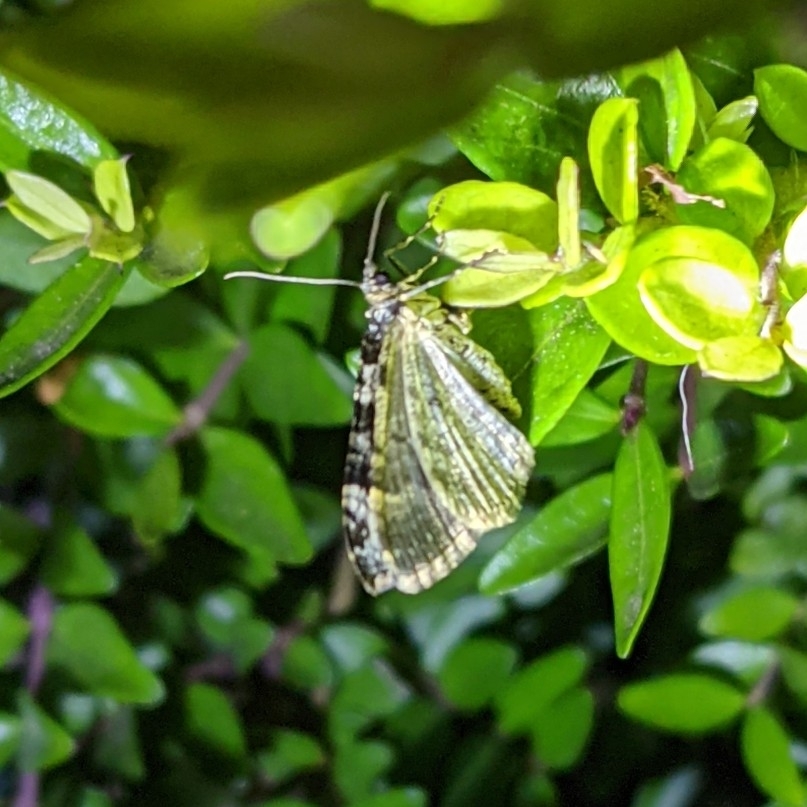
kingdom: Animalia
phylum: Arthropoda
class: Insecta
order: Lepidoptera
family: Geometridae
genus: Chloroclysta
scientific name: Chloroclysta siterata
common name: Red-green carpet
